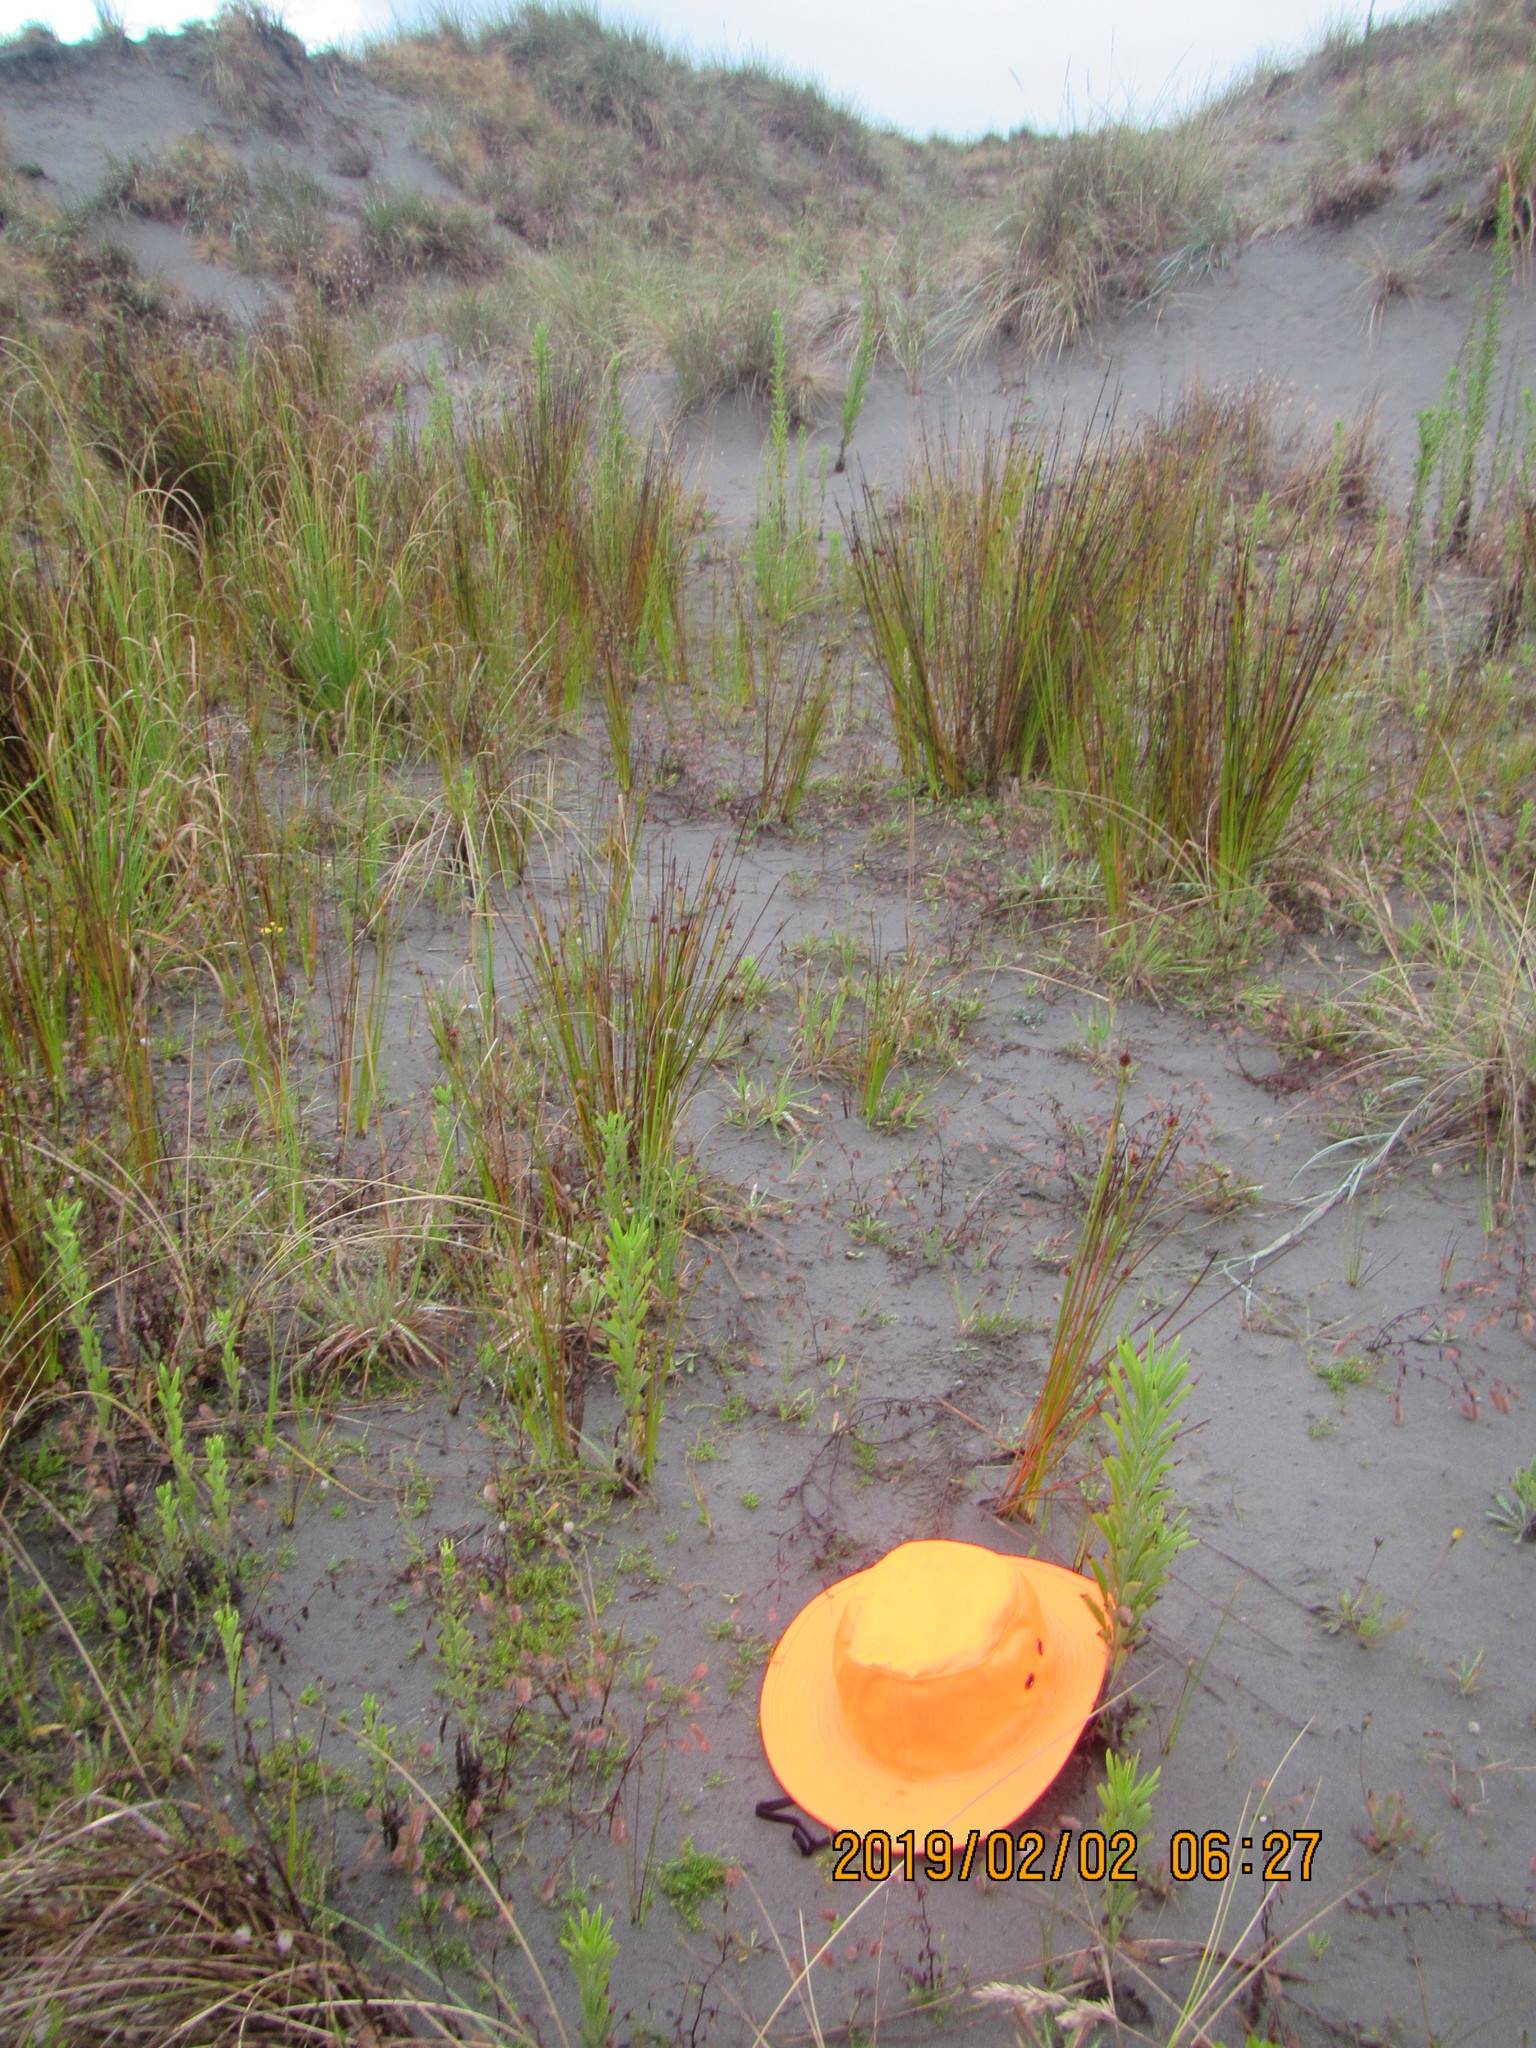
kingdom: Plantae
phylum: Tracheophyta
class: Magnoliopsida
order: Caryophyllales
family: Caryophyllaceae
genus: Sagina
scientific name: Sagina procumbens
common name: Procumbent pearlwort
